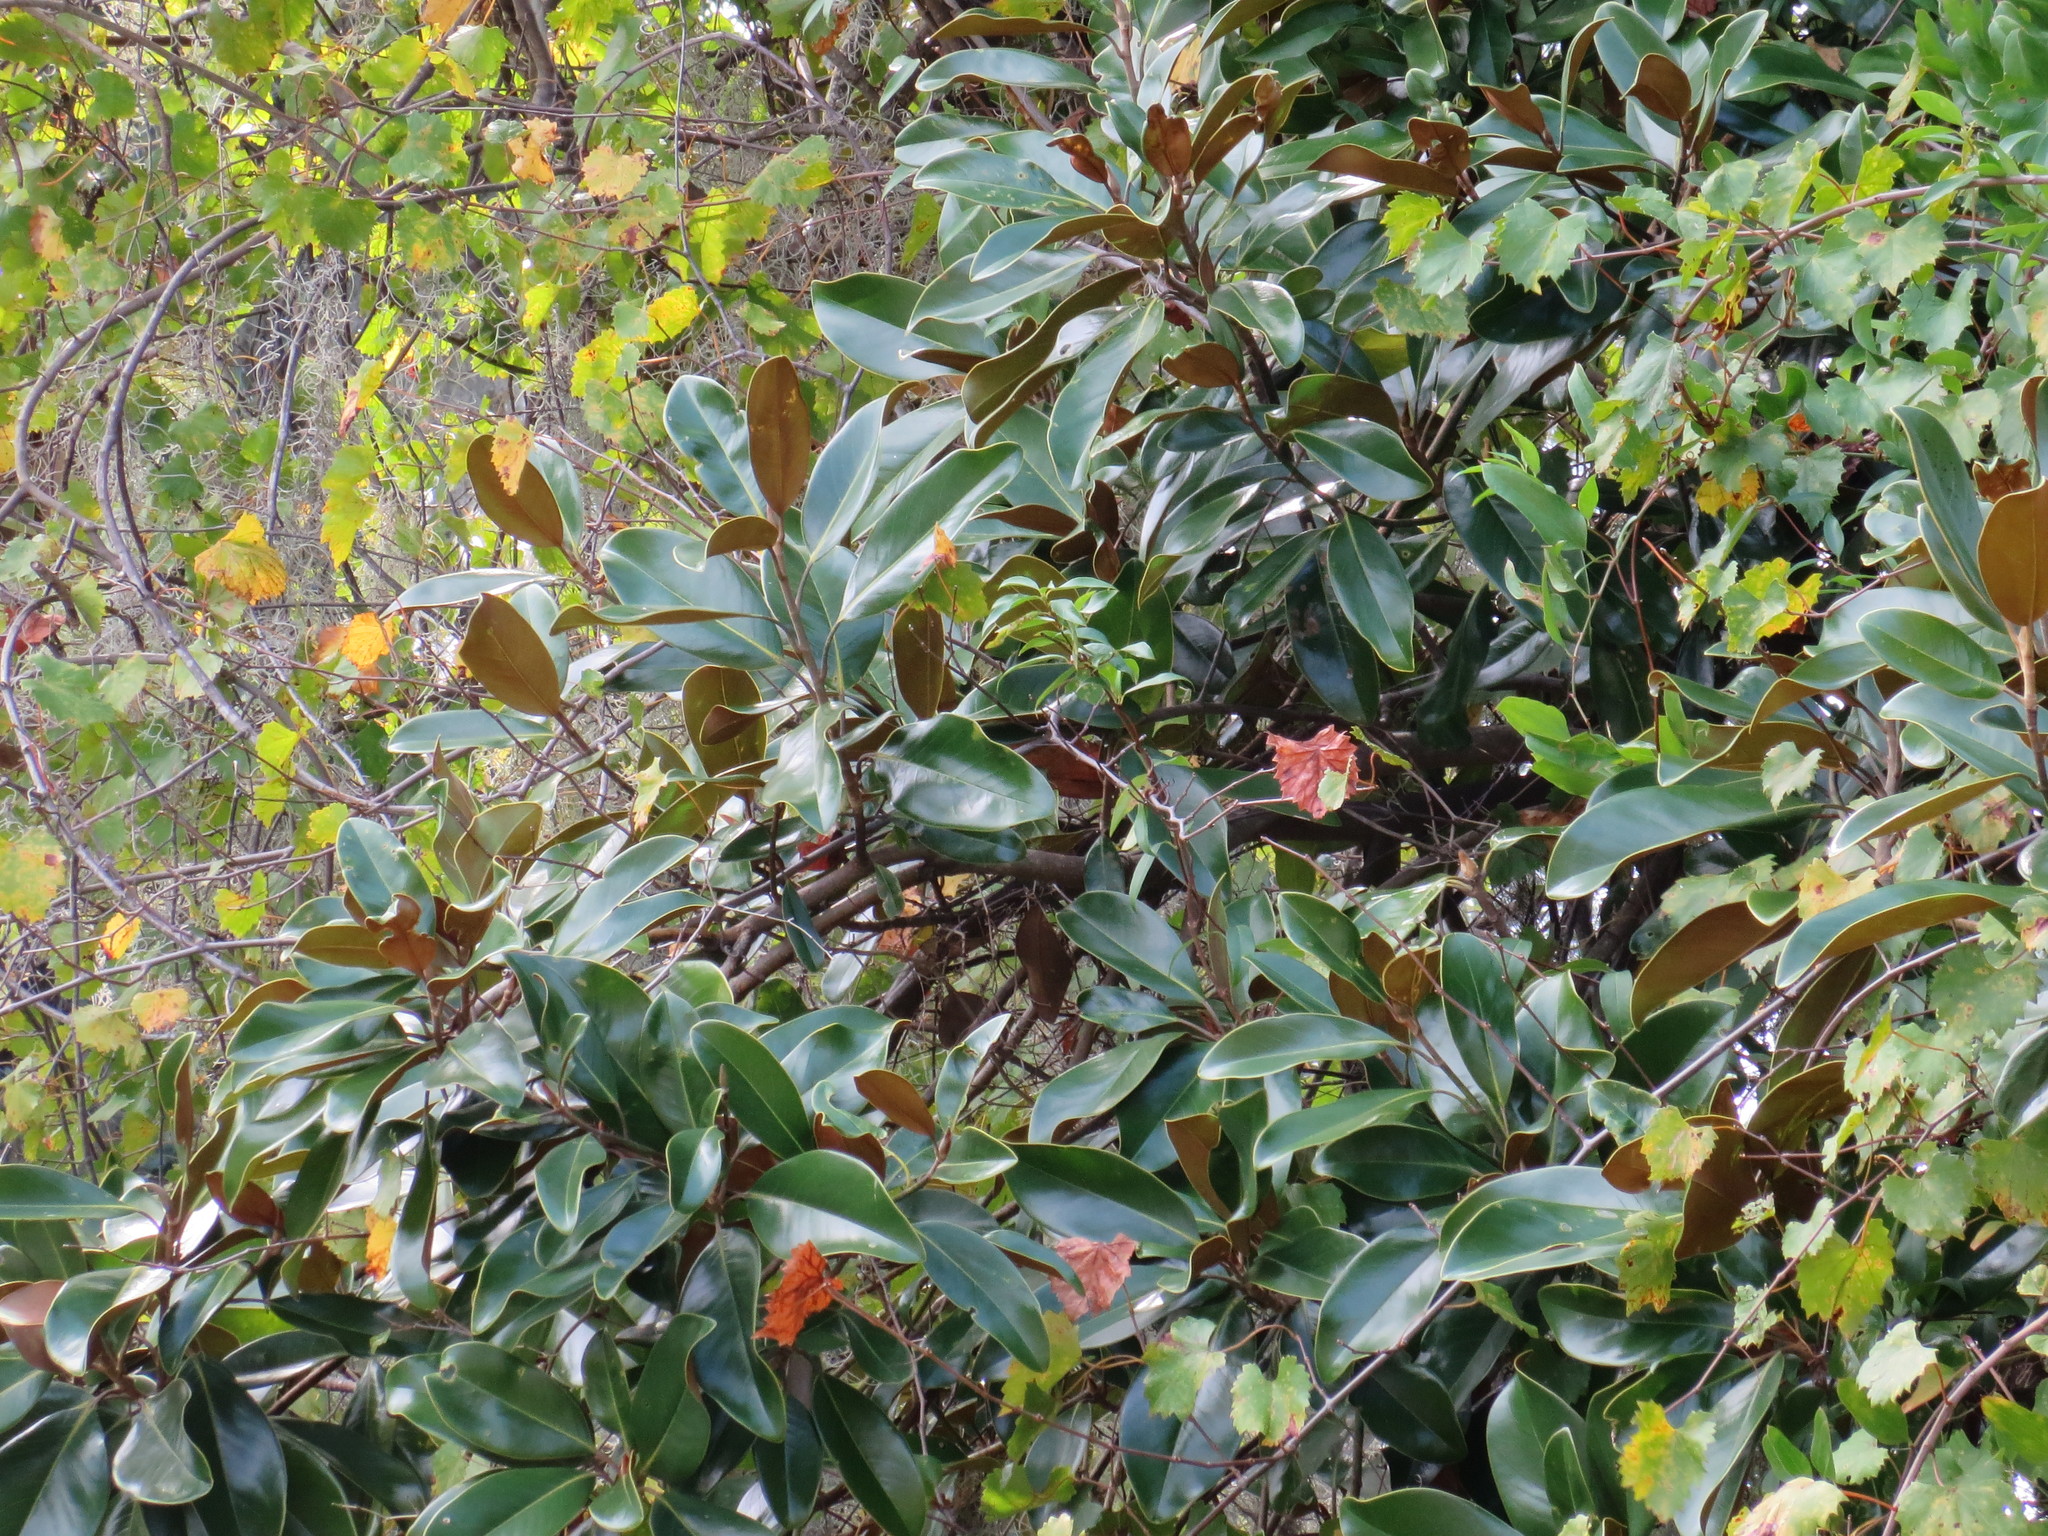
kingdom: Plantae
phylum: Tracheophyta
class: Magnoliopsida
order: Magnoliales
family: Magnoliaceae
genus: Magnolia
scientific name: Magnolia grandiflora
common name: Southern magnolia
